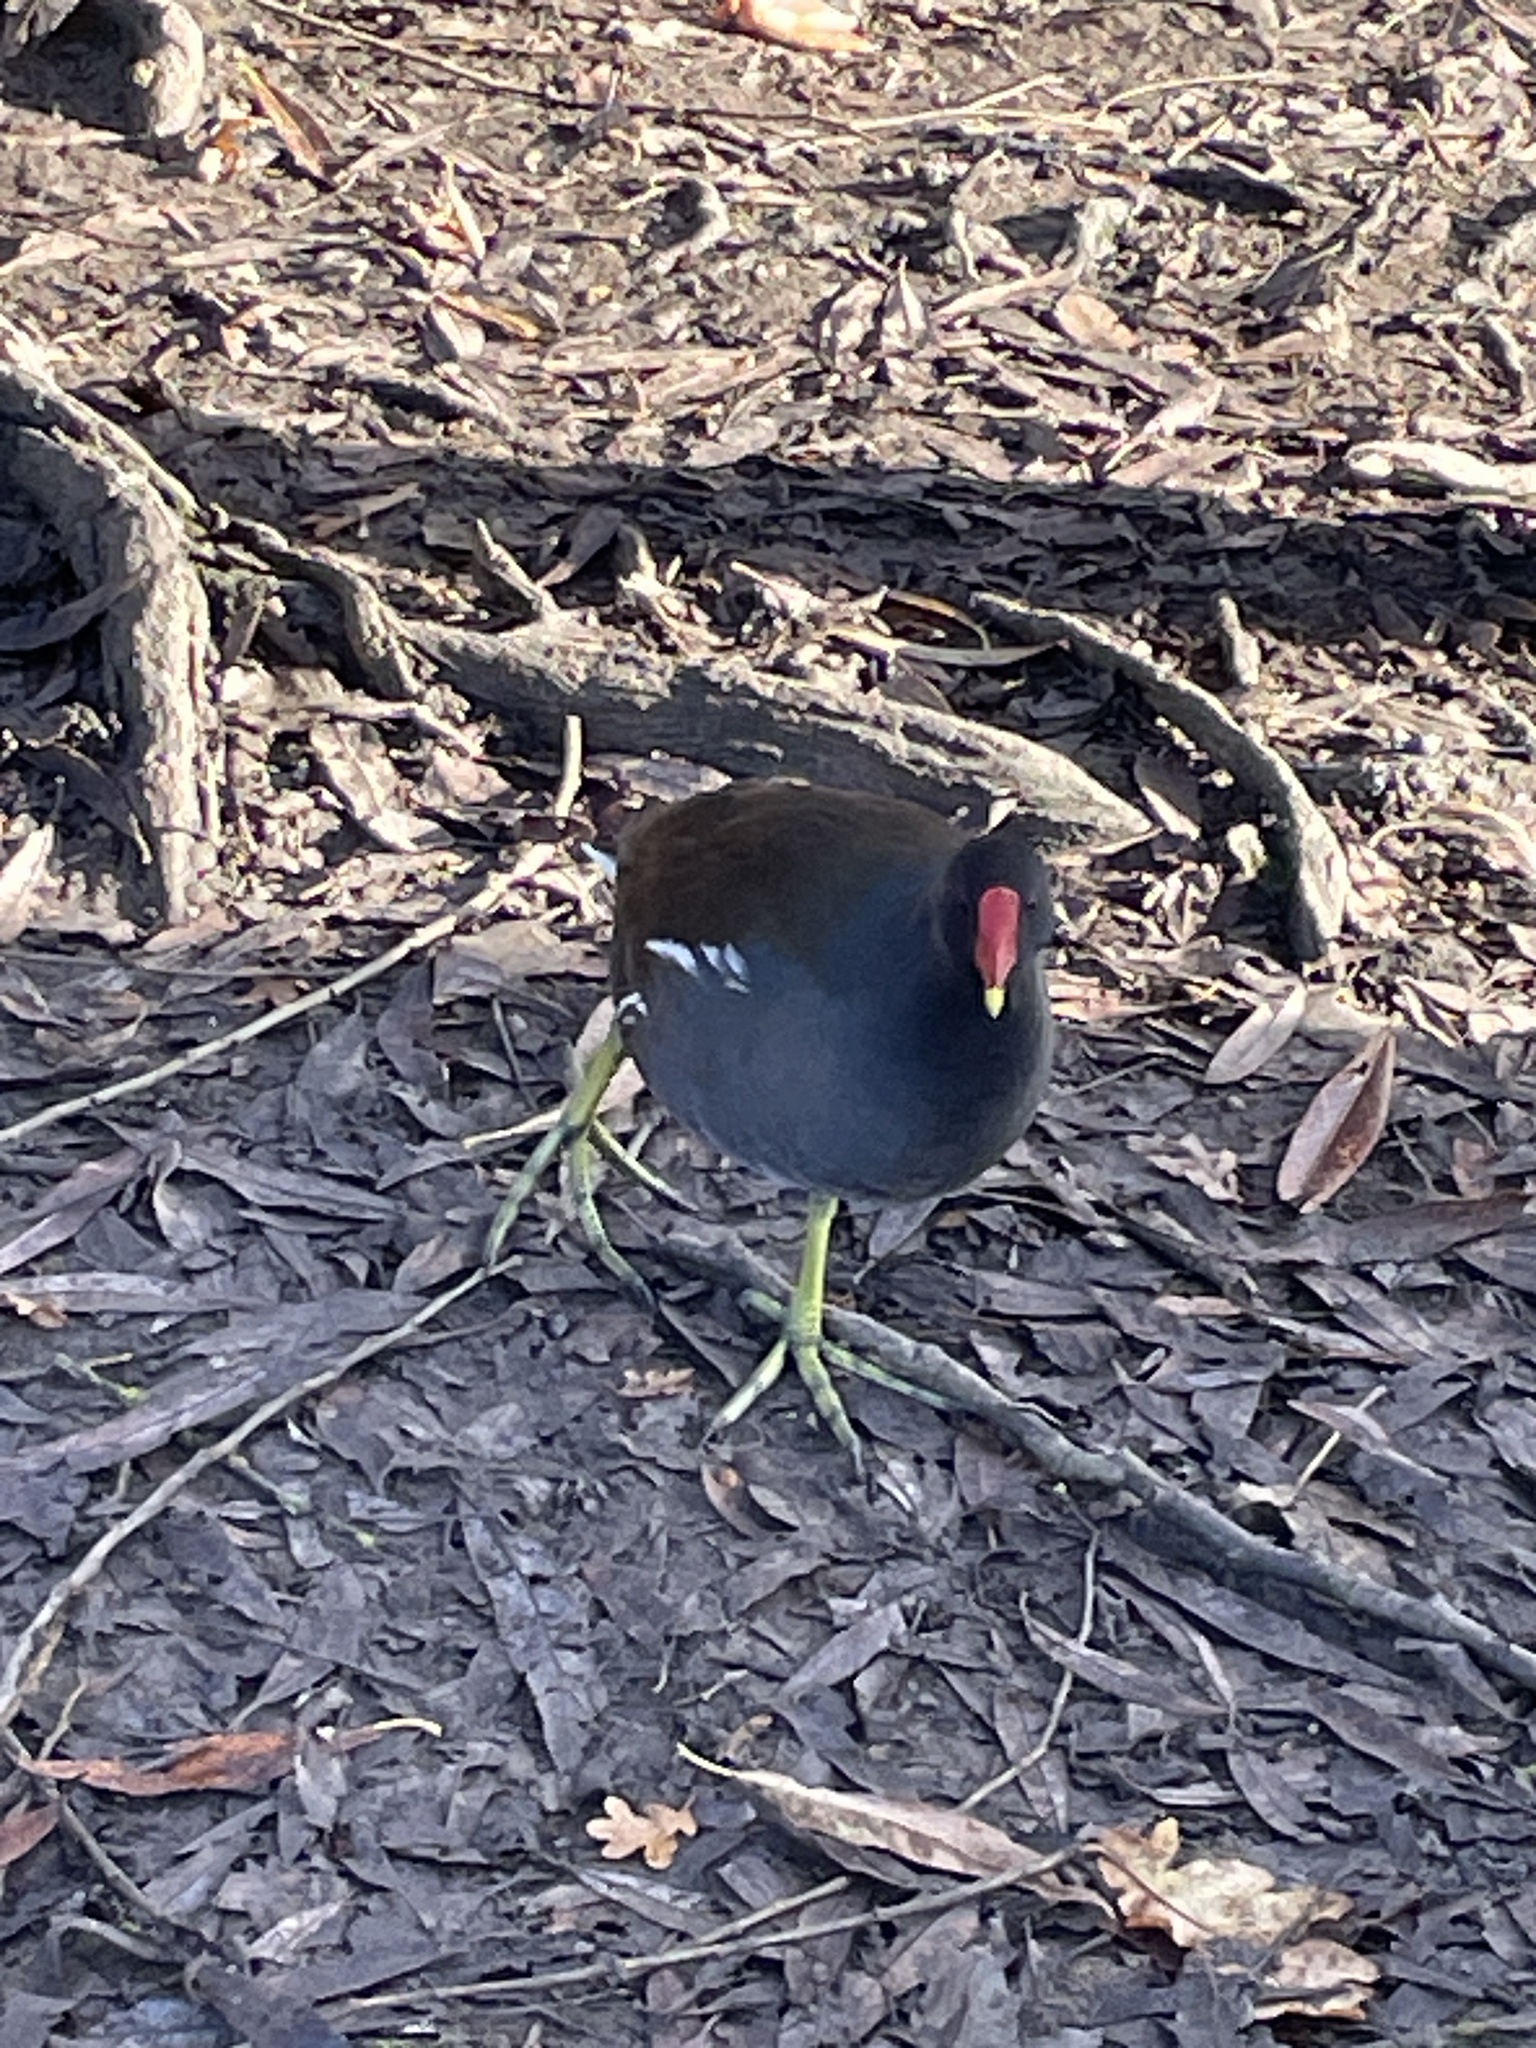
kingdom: Animalia
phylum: Chordata
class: Aves
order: Gruiformes
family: Rallidae
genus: Gallinula
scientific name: Gallinula chloropus
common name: Common moorhen
